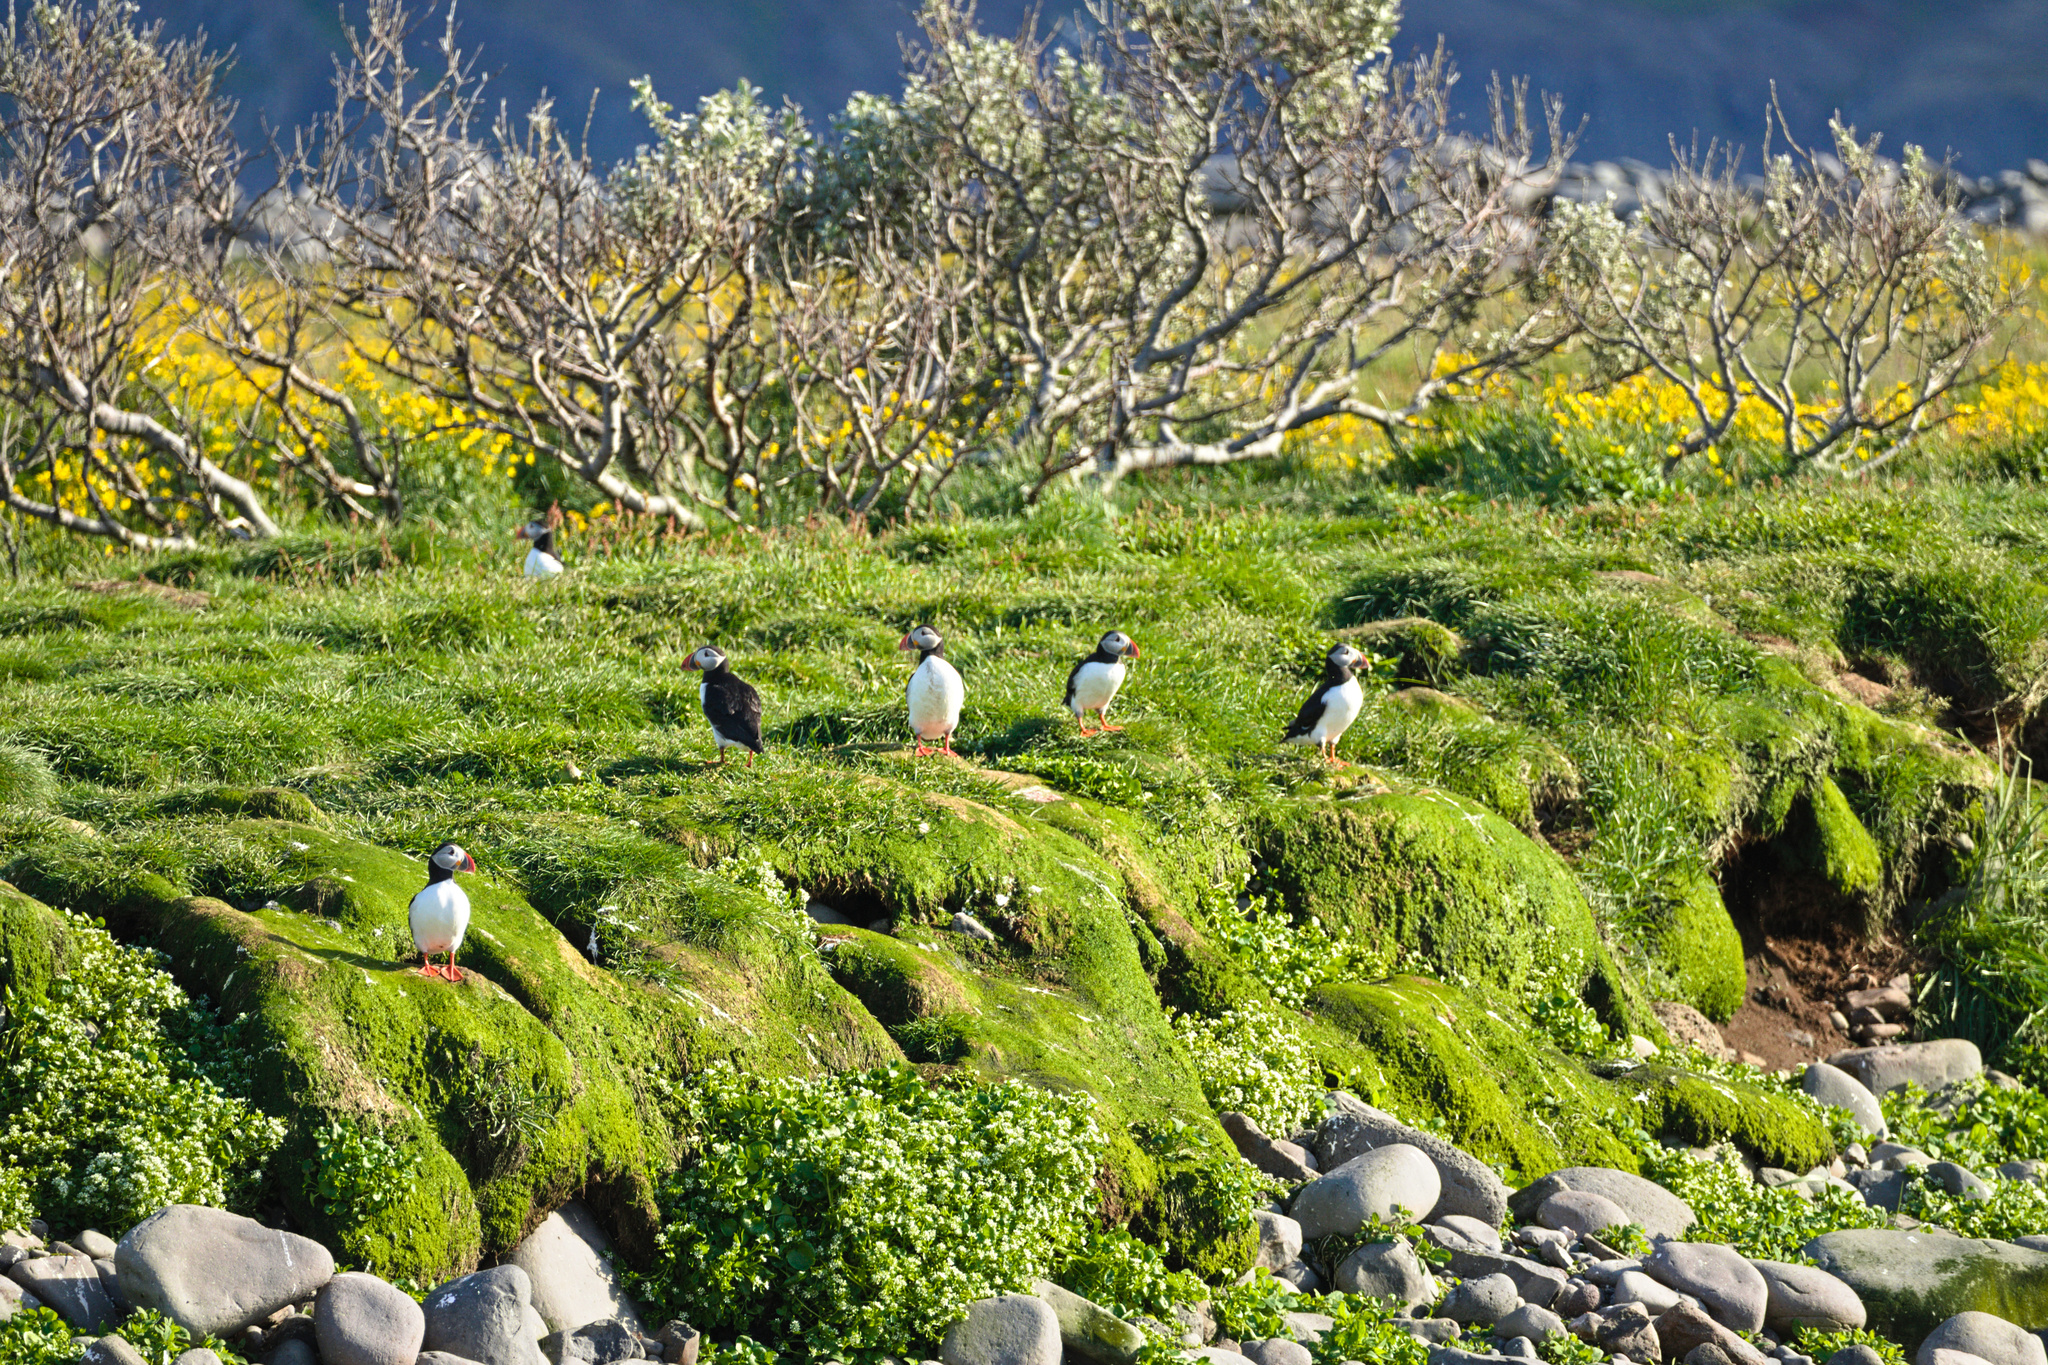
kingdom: Animalia
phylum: Chordata
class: Aves
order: Charadriiformes
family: Alcidae
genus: Fratercula
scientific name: Fratercula arctica
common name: Atlantic puffin
